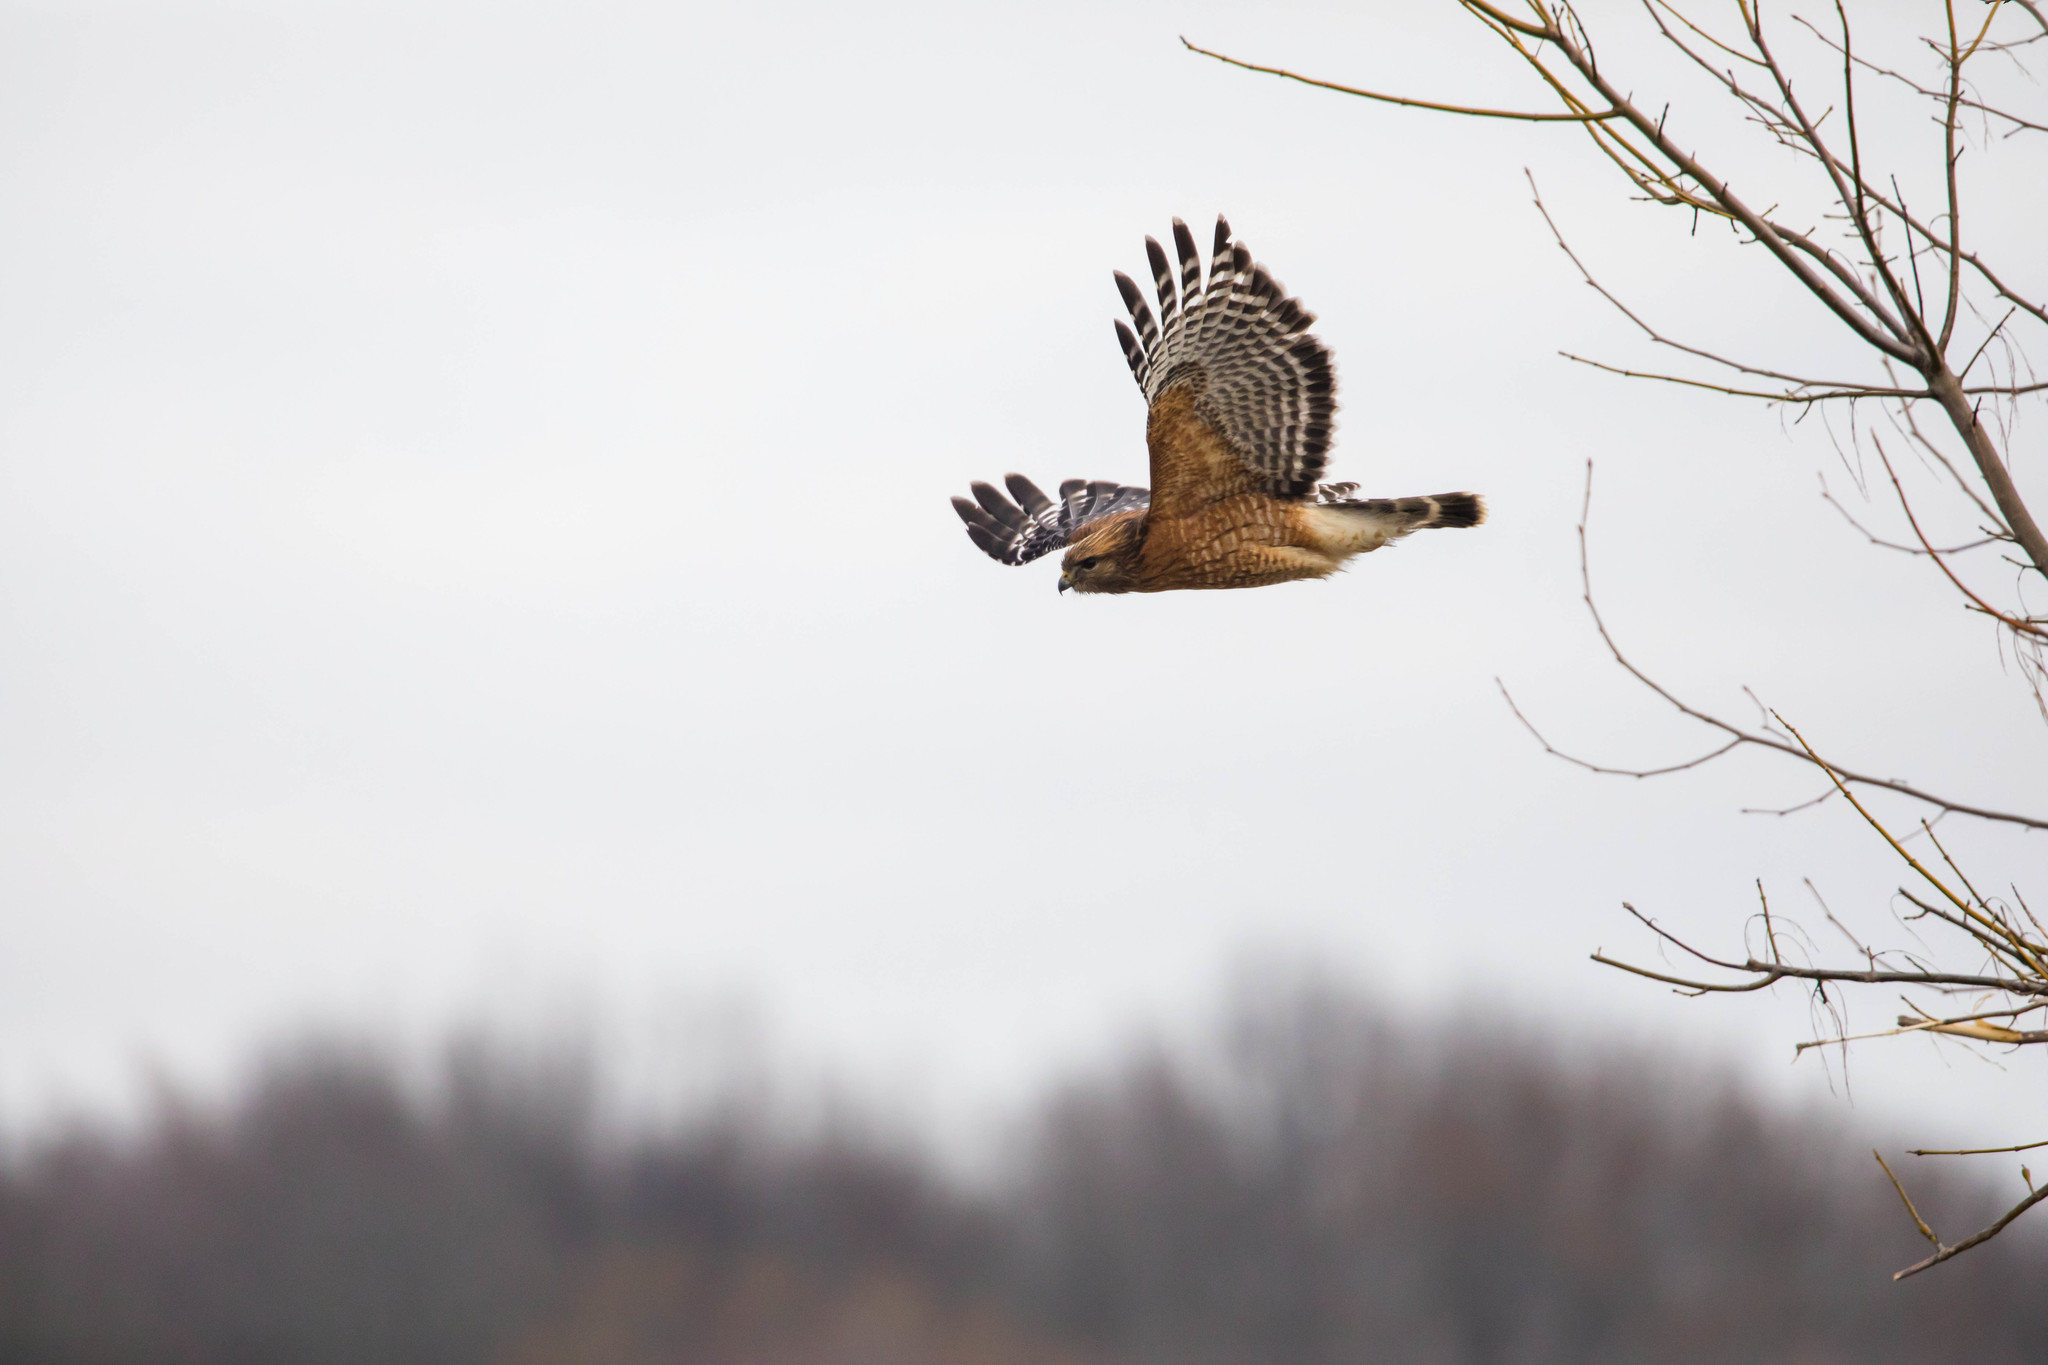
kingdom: Animalia
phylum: Chordata
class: Aves
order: Accipitriformes
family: Accipitridae
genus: Buteo
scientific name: Buteo lineatus
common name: Red-shouldered hawk
